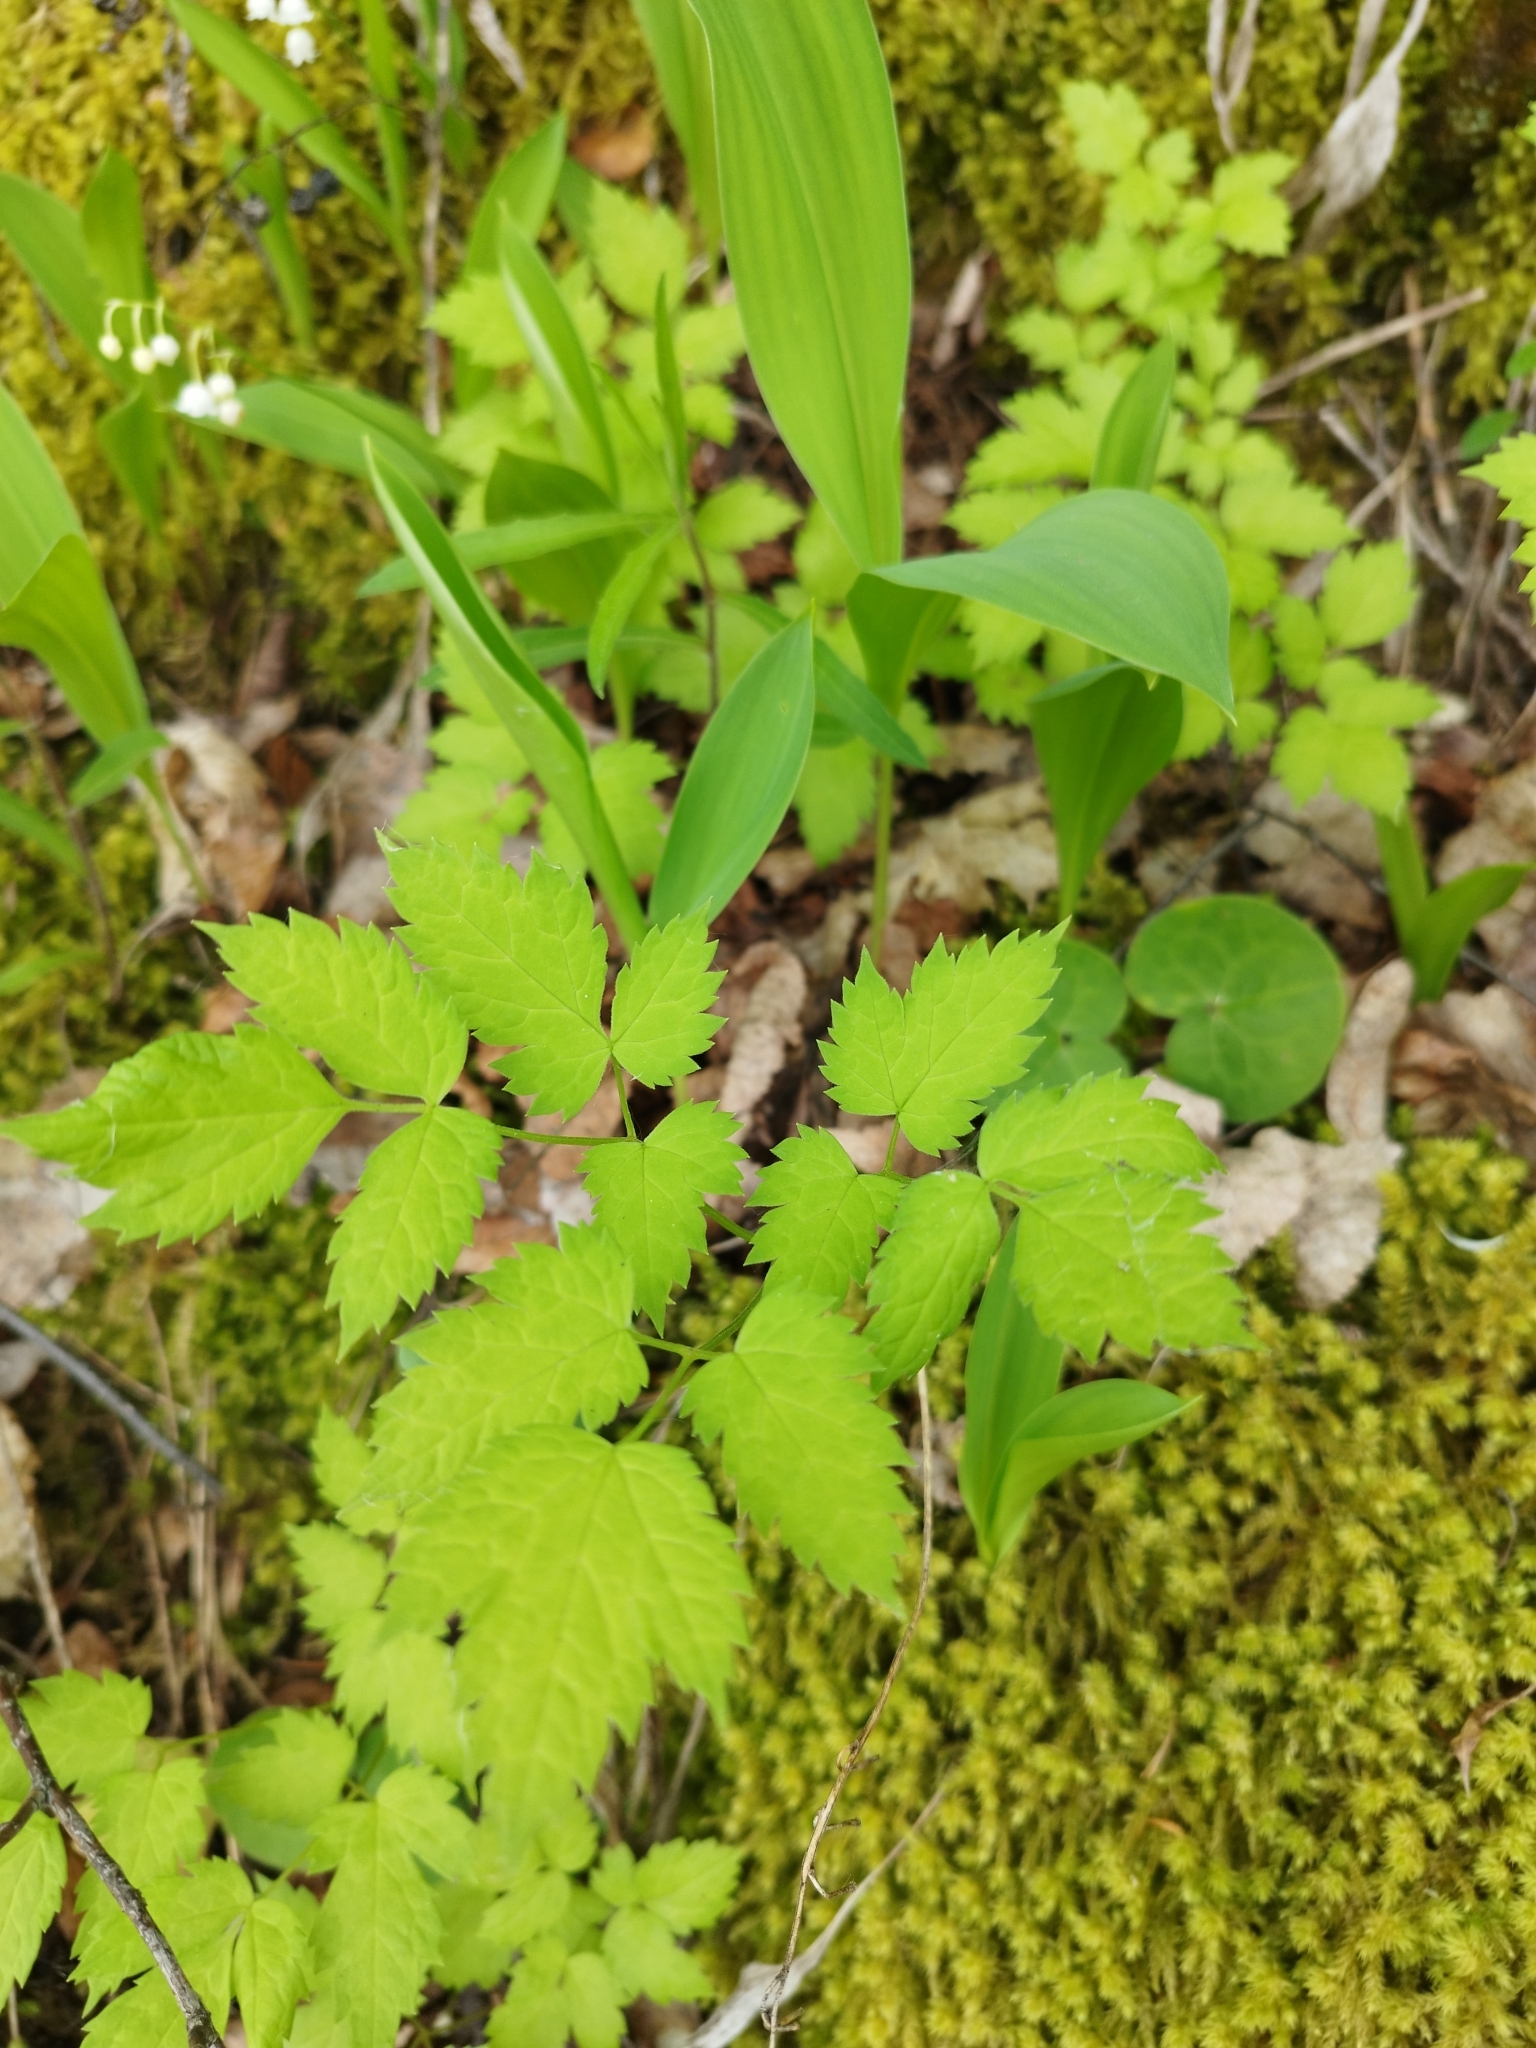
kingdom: Plantae
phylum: Tracheophyta
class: Magnoliopsida
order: Ranunculales
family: Ranunculaceae
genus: Actaea
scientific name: Actaea spicata
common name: Baneberry
